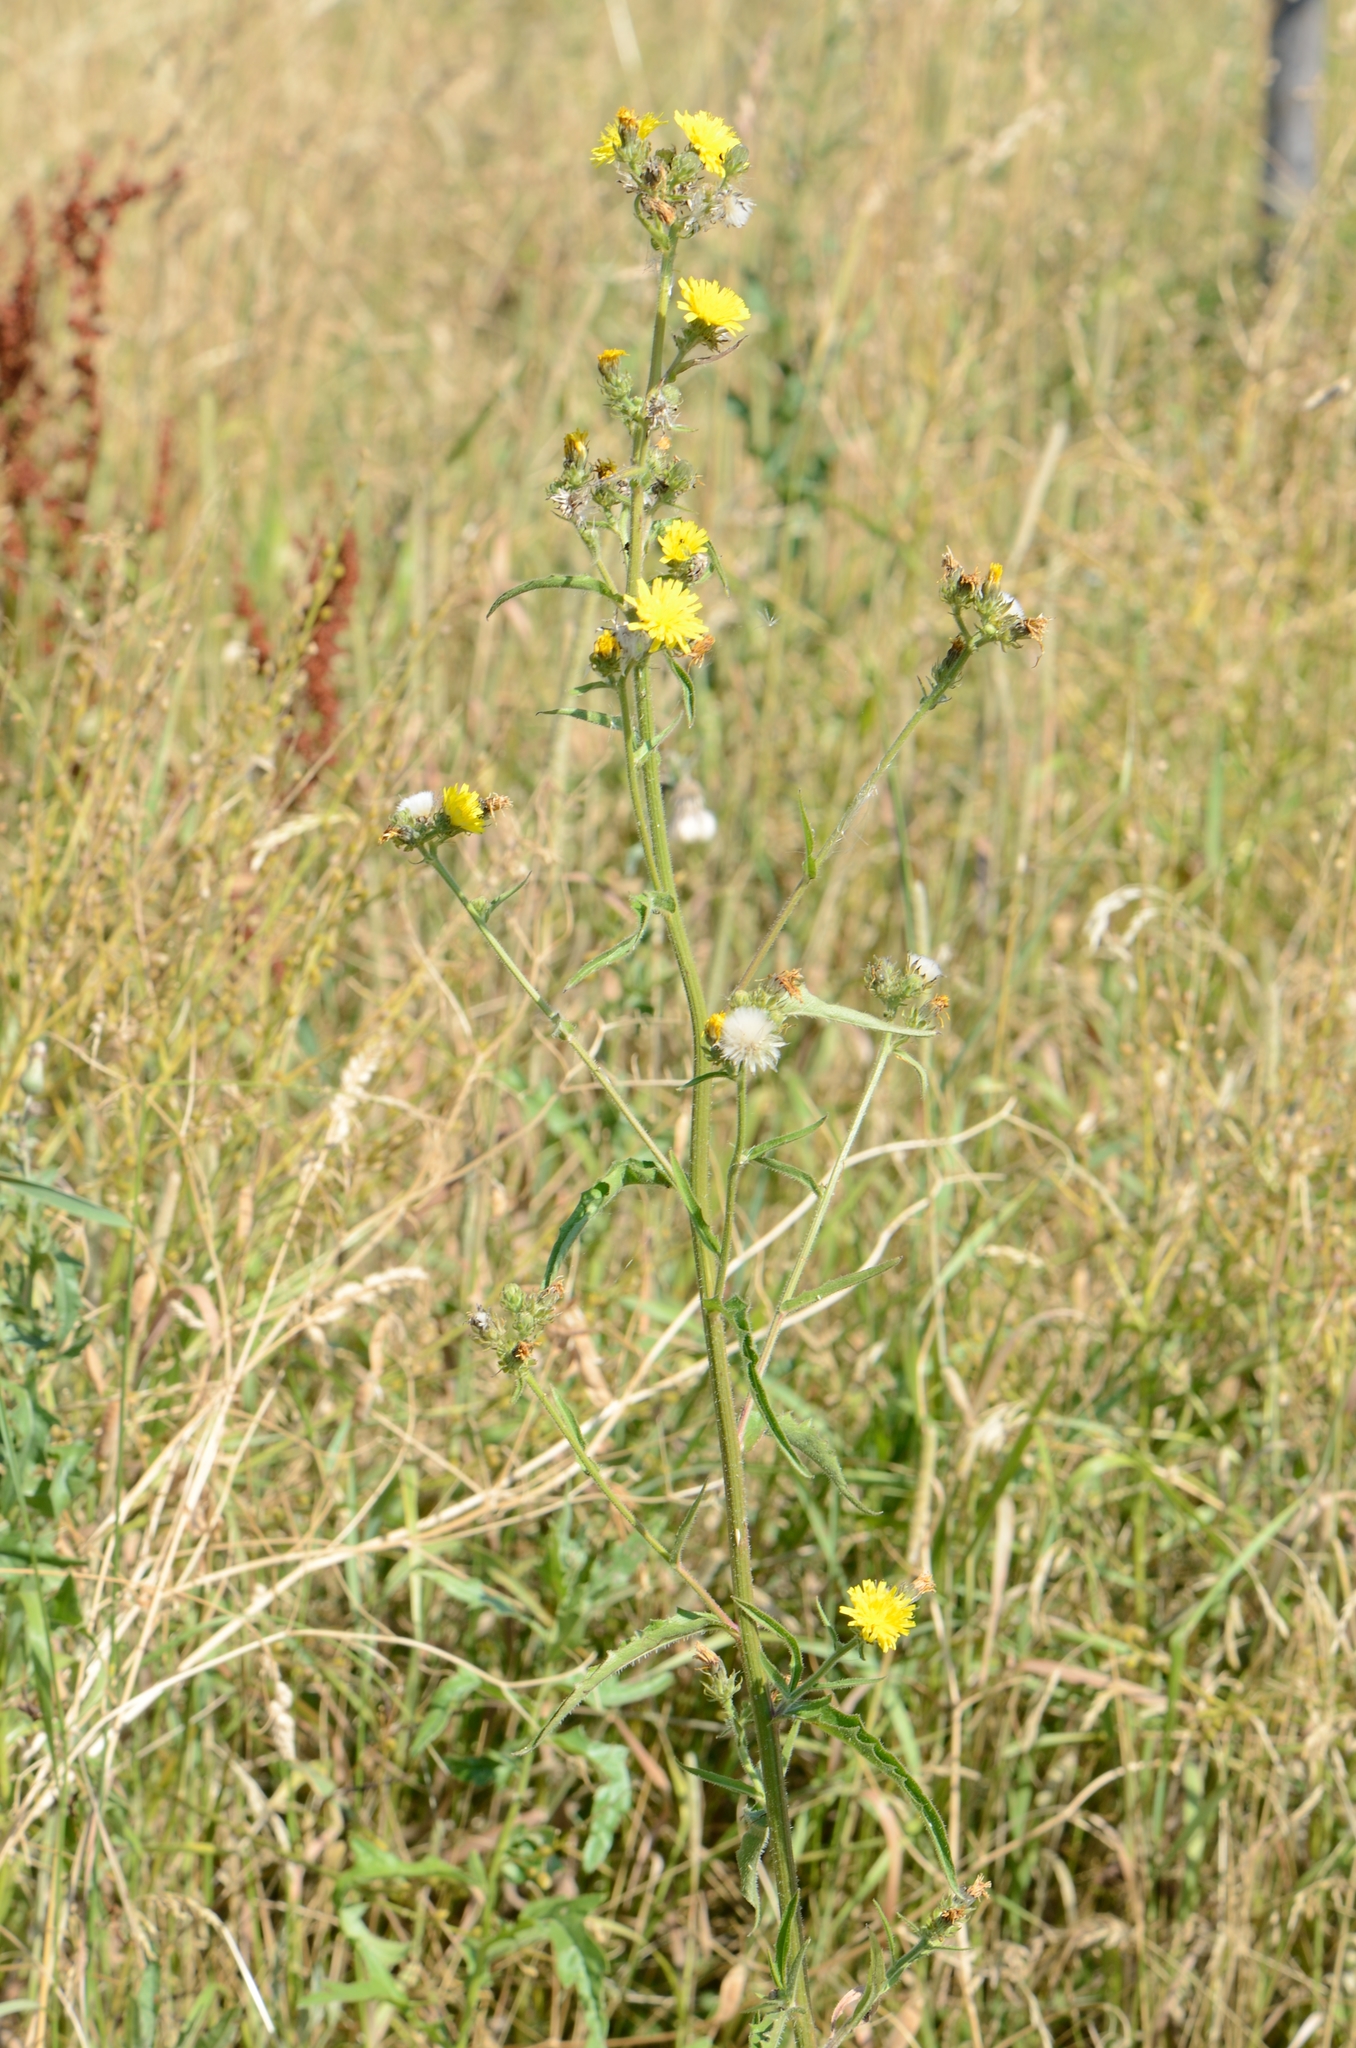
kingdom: Plantae
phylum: Tracheophyta
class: Magnoliopsida
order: Asterales
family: Asteraceae
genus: Picris
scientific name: Picris hieracioides
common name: Hawkweed oxtongue
